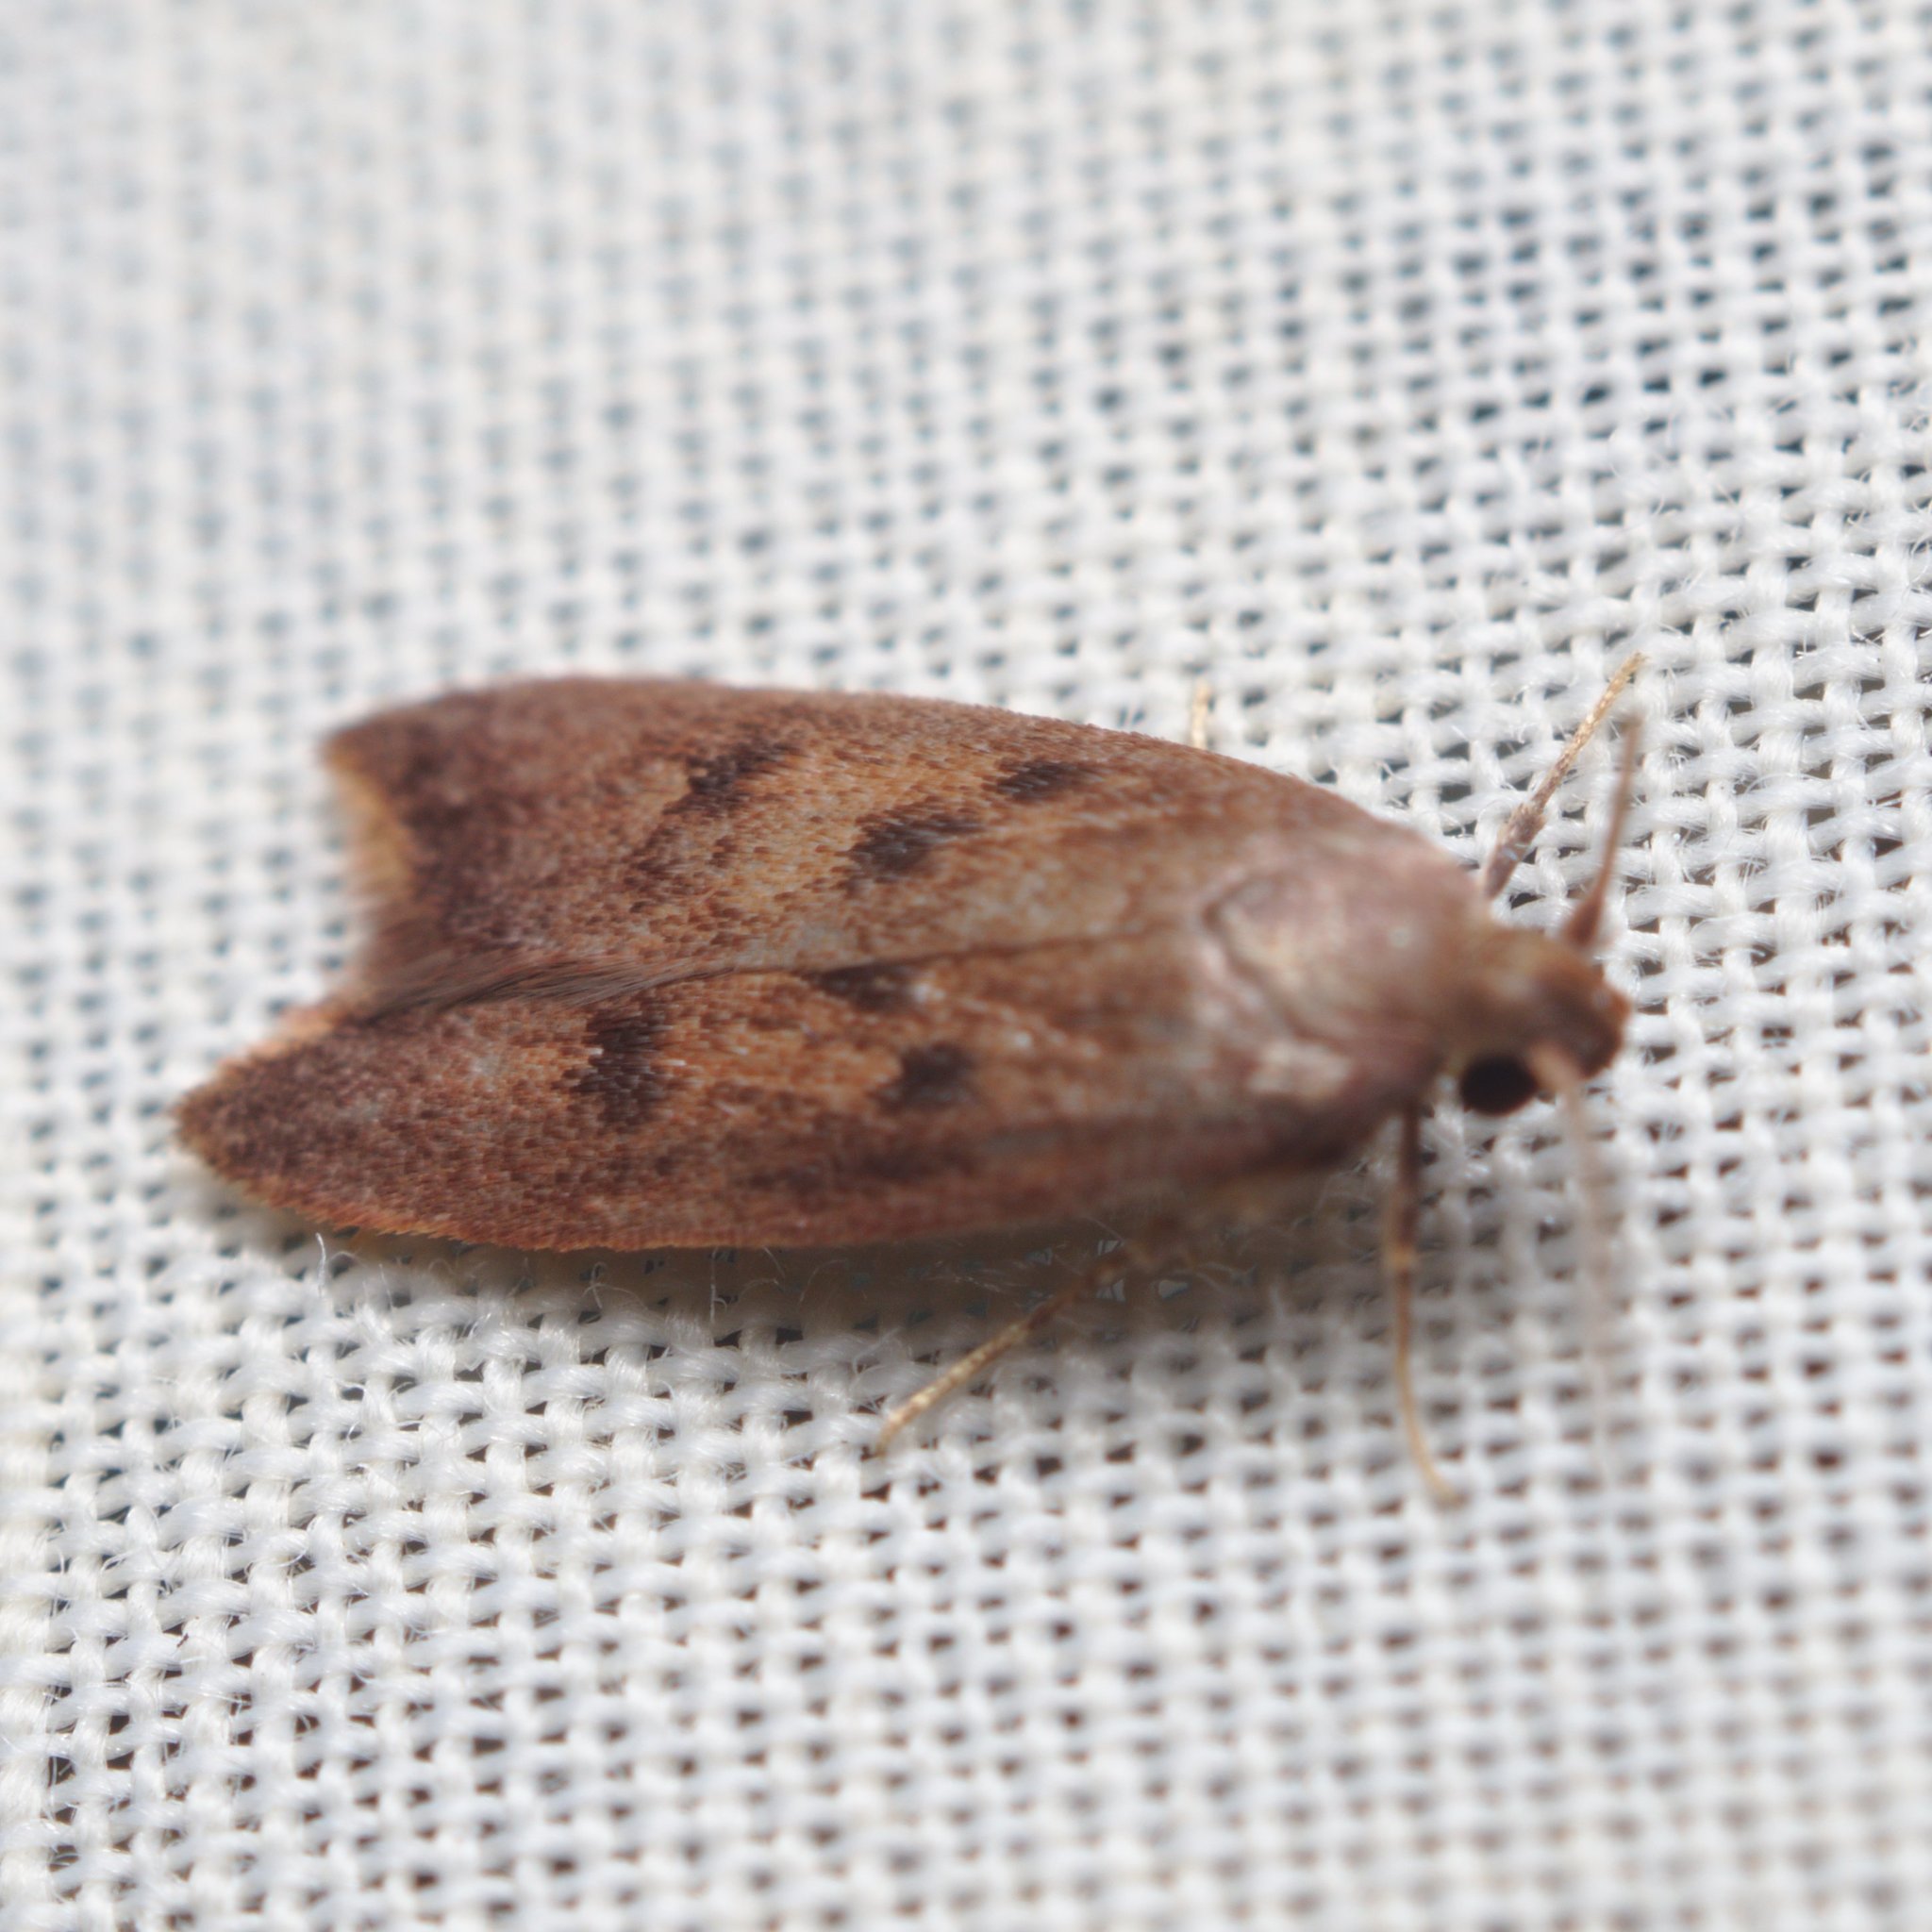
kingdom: Animalia
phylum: Arthropoda
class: Insecta
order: Lepidoptera
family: Oecophoridae
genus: Tachystola
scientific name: Tachystola acroxantha
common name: Ruddy streak
